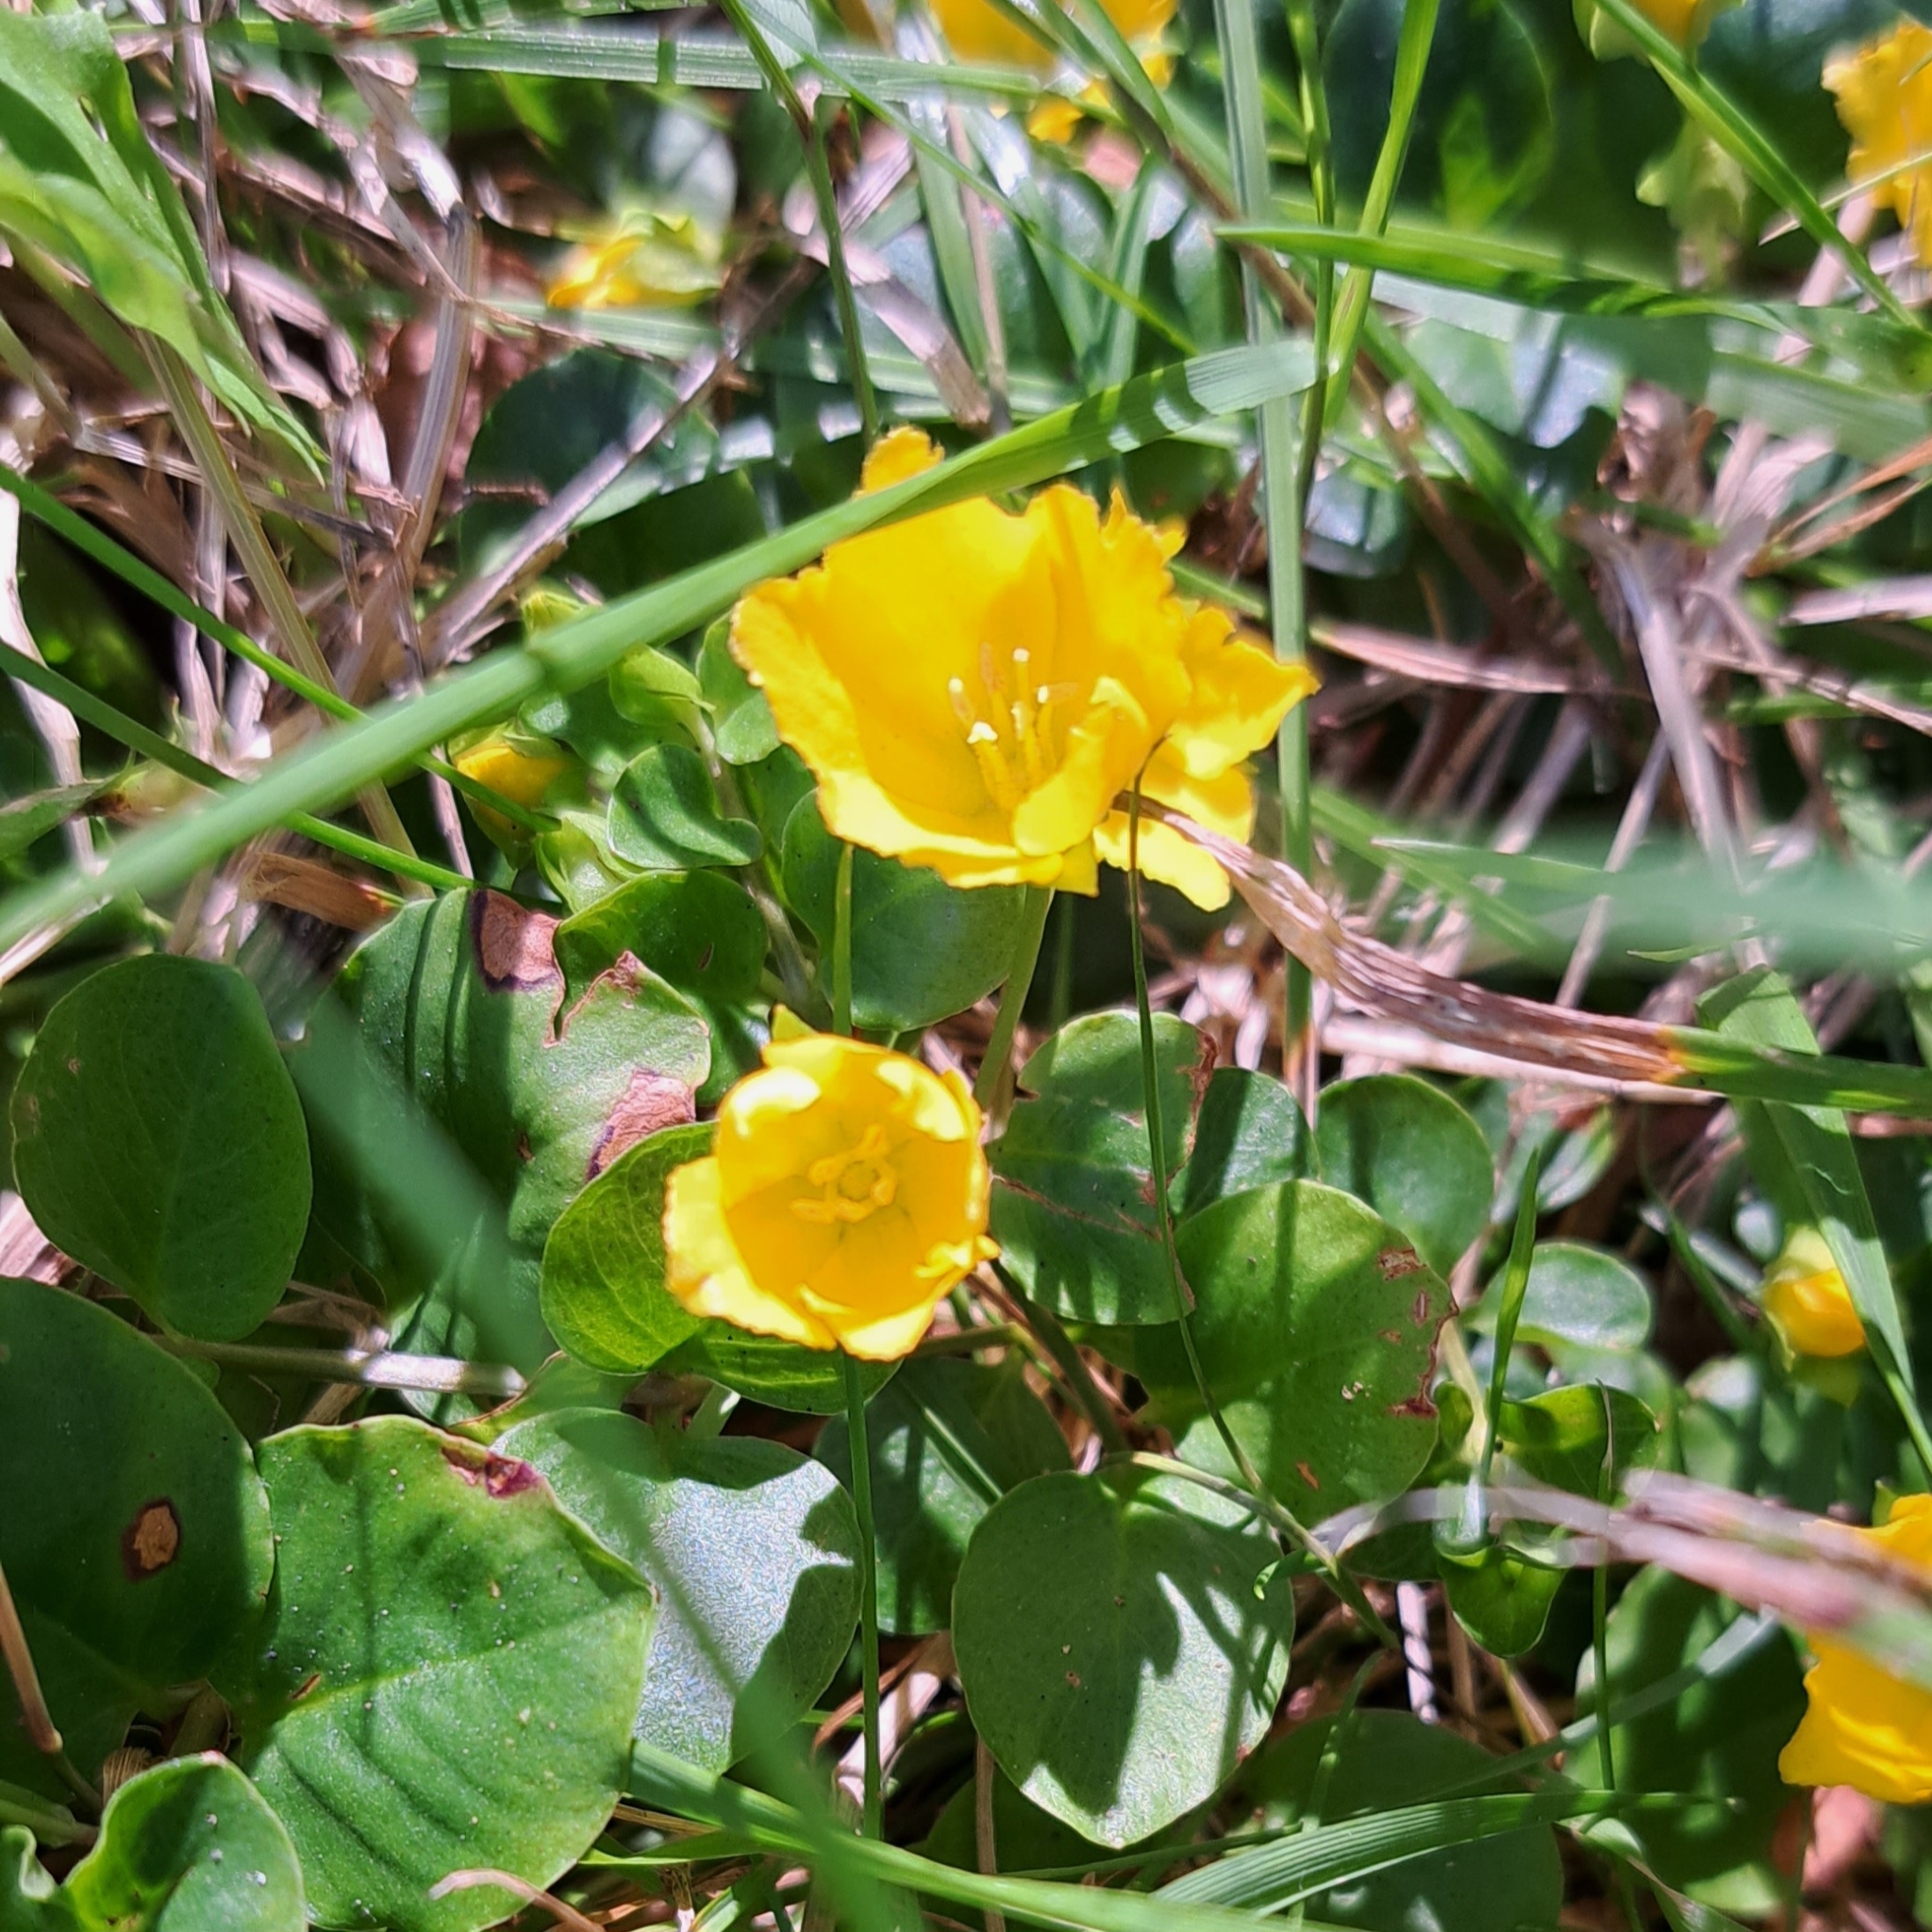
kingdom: Plantae
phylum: Tracheophyta
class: Magnoliopsida
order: Ericales
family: Primulaceae
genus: Lysimachia
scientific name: Lysimachia nummularia
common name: Moneywort
